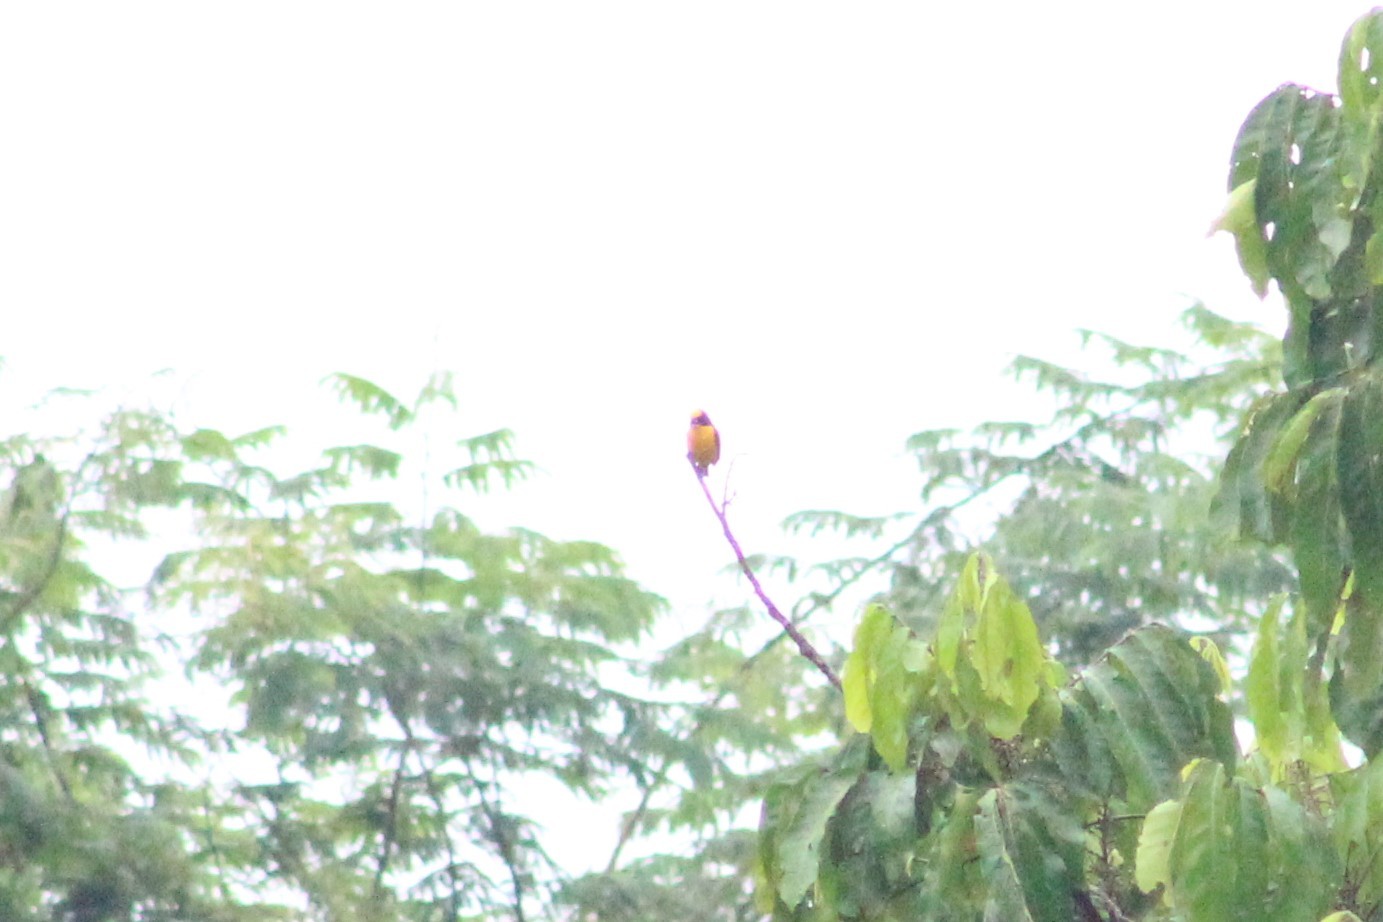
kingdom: Animalia
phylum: Chordata
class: Aves
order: Passeriformes
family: Fringillidae
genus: Euphonia
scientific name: Euphonia laniirostris
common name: Thick-billed euphonia
